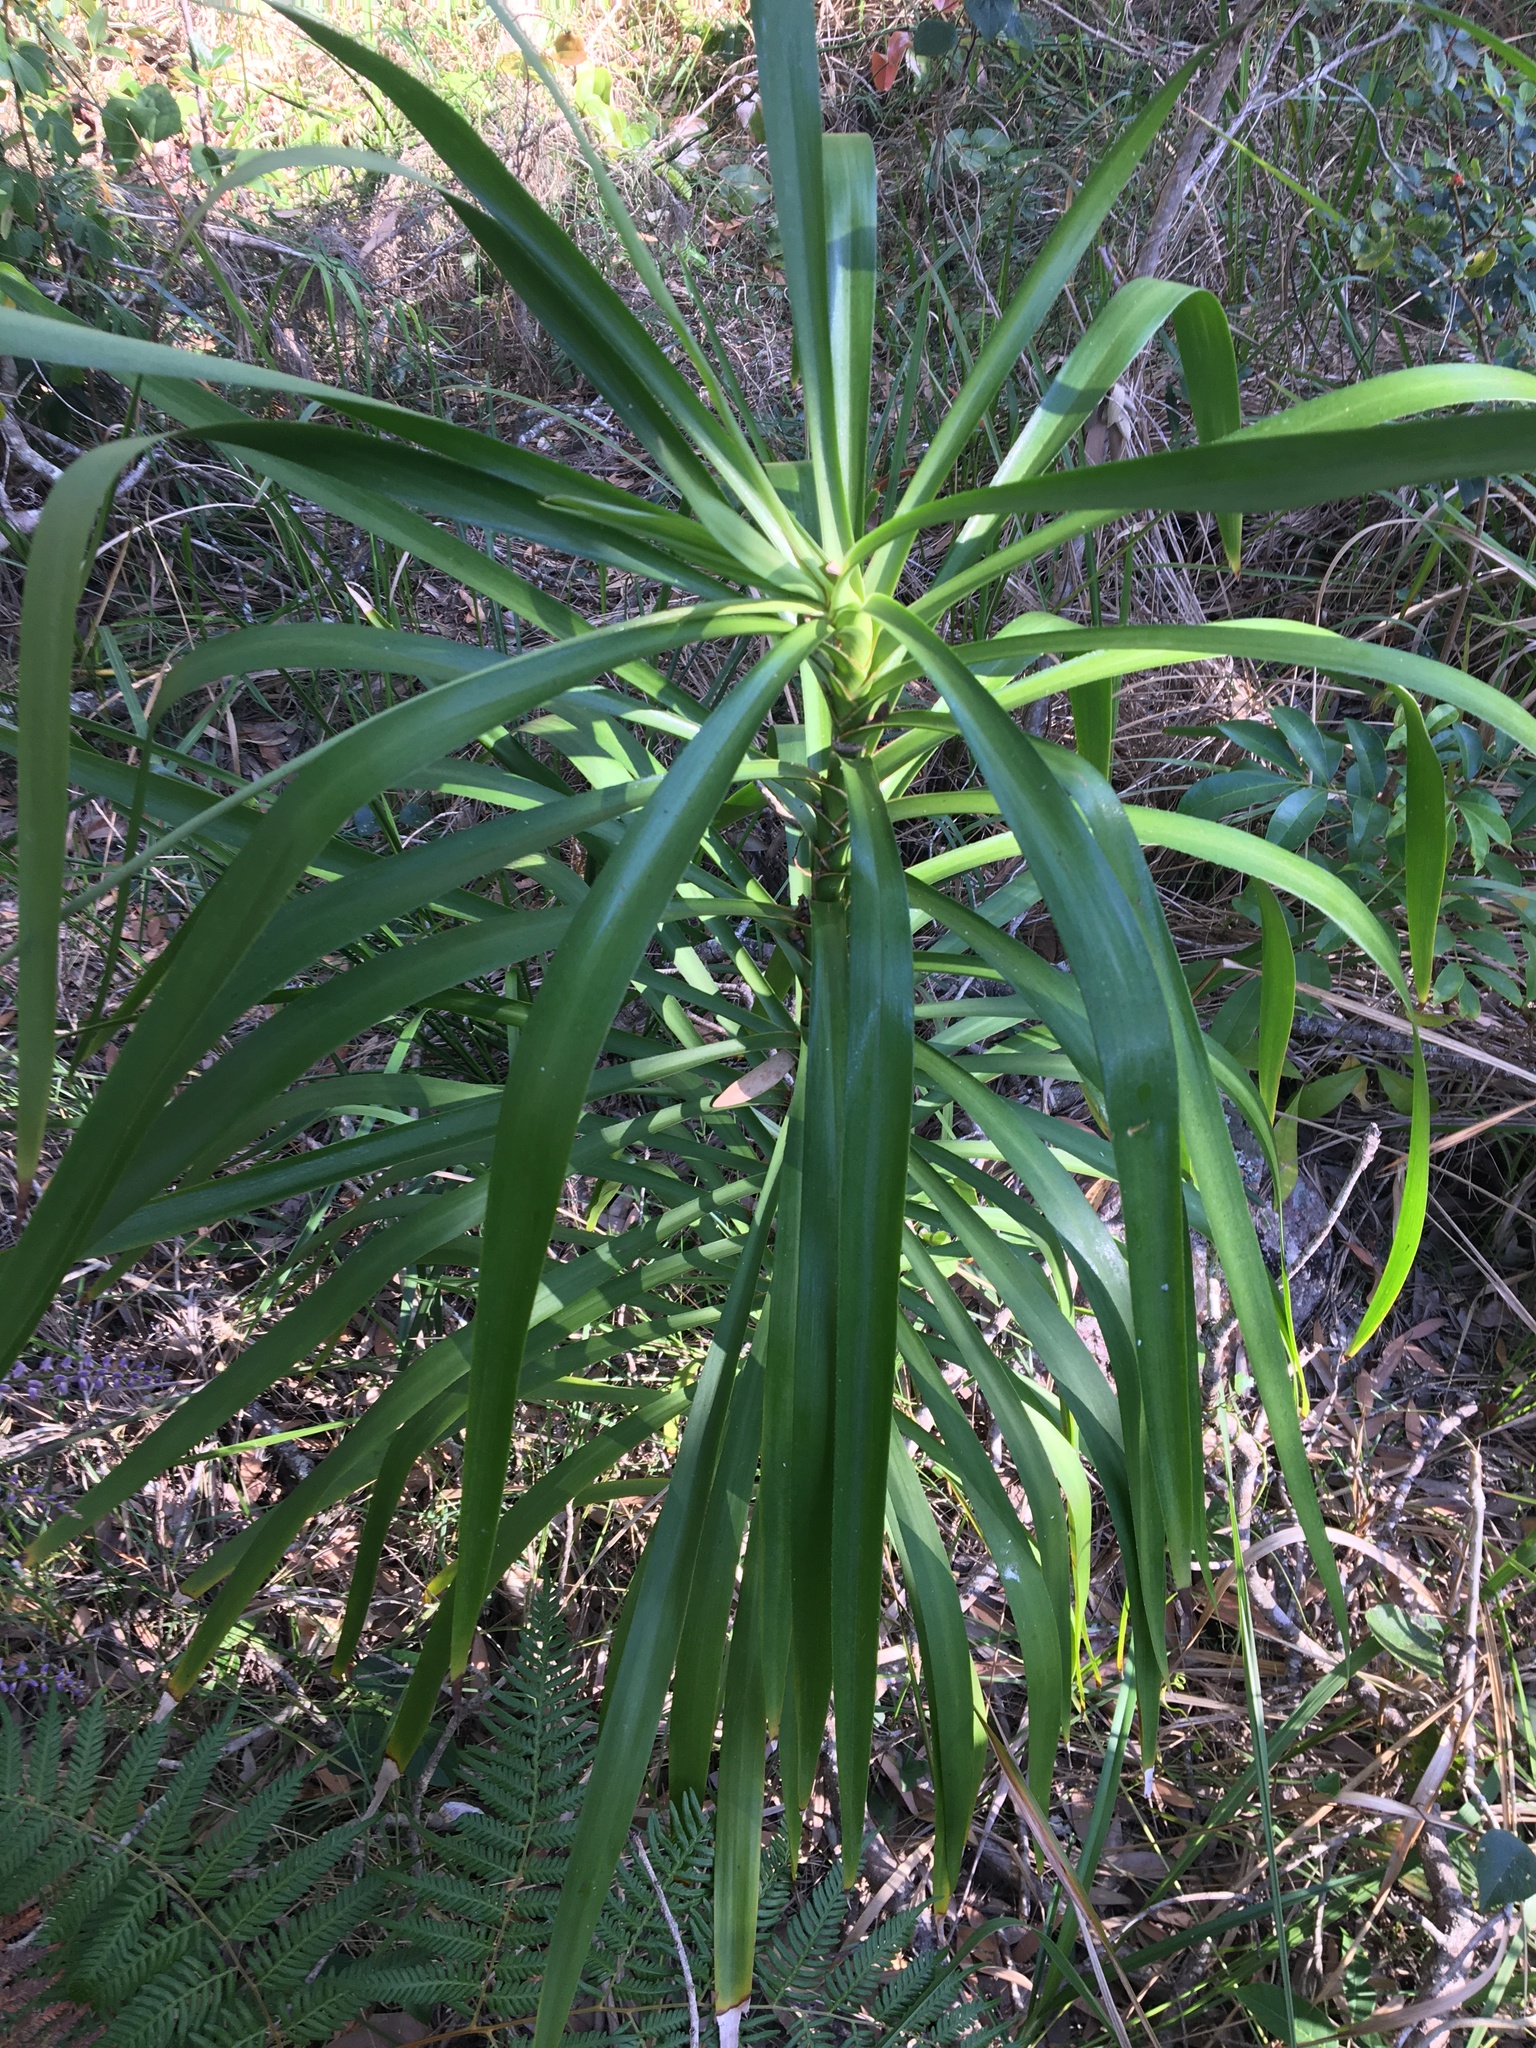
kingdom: Plantae
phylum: Tracheophyta
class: Liliopsida
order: Asparagales
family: Asparagaceae
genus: Cordyline
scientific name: Cordyline stricta
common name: Narrow-leaf palm-lily
